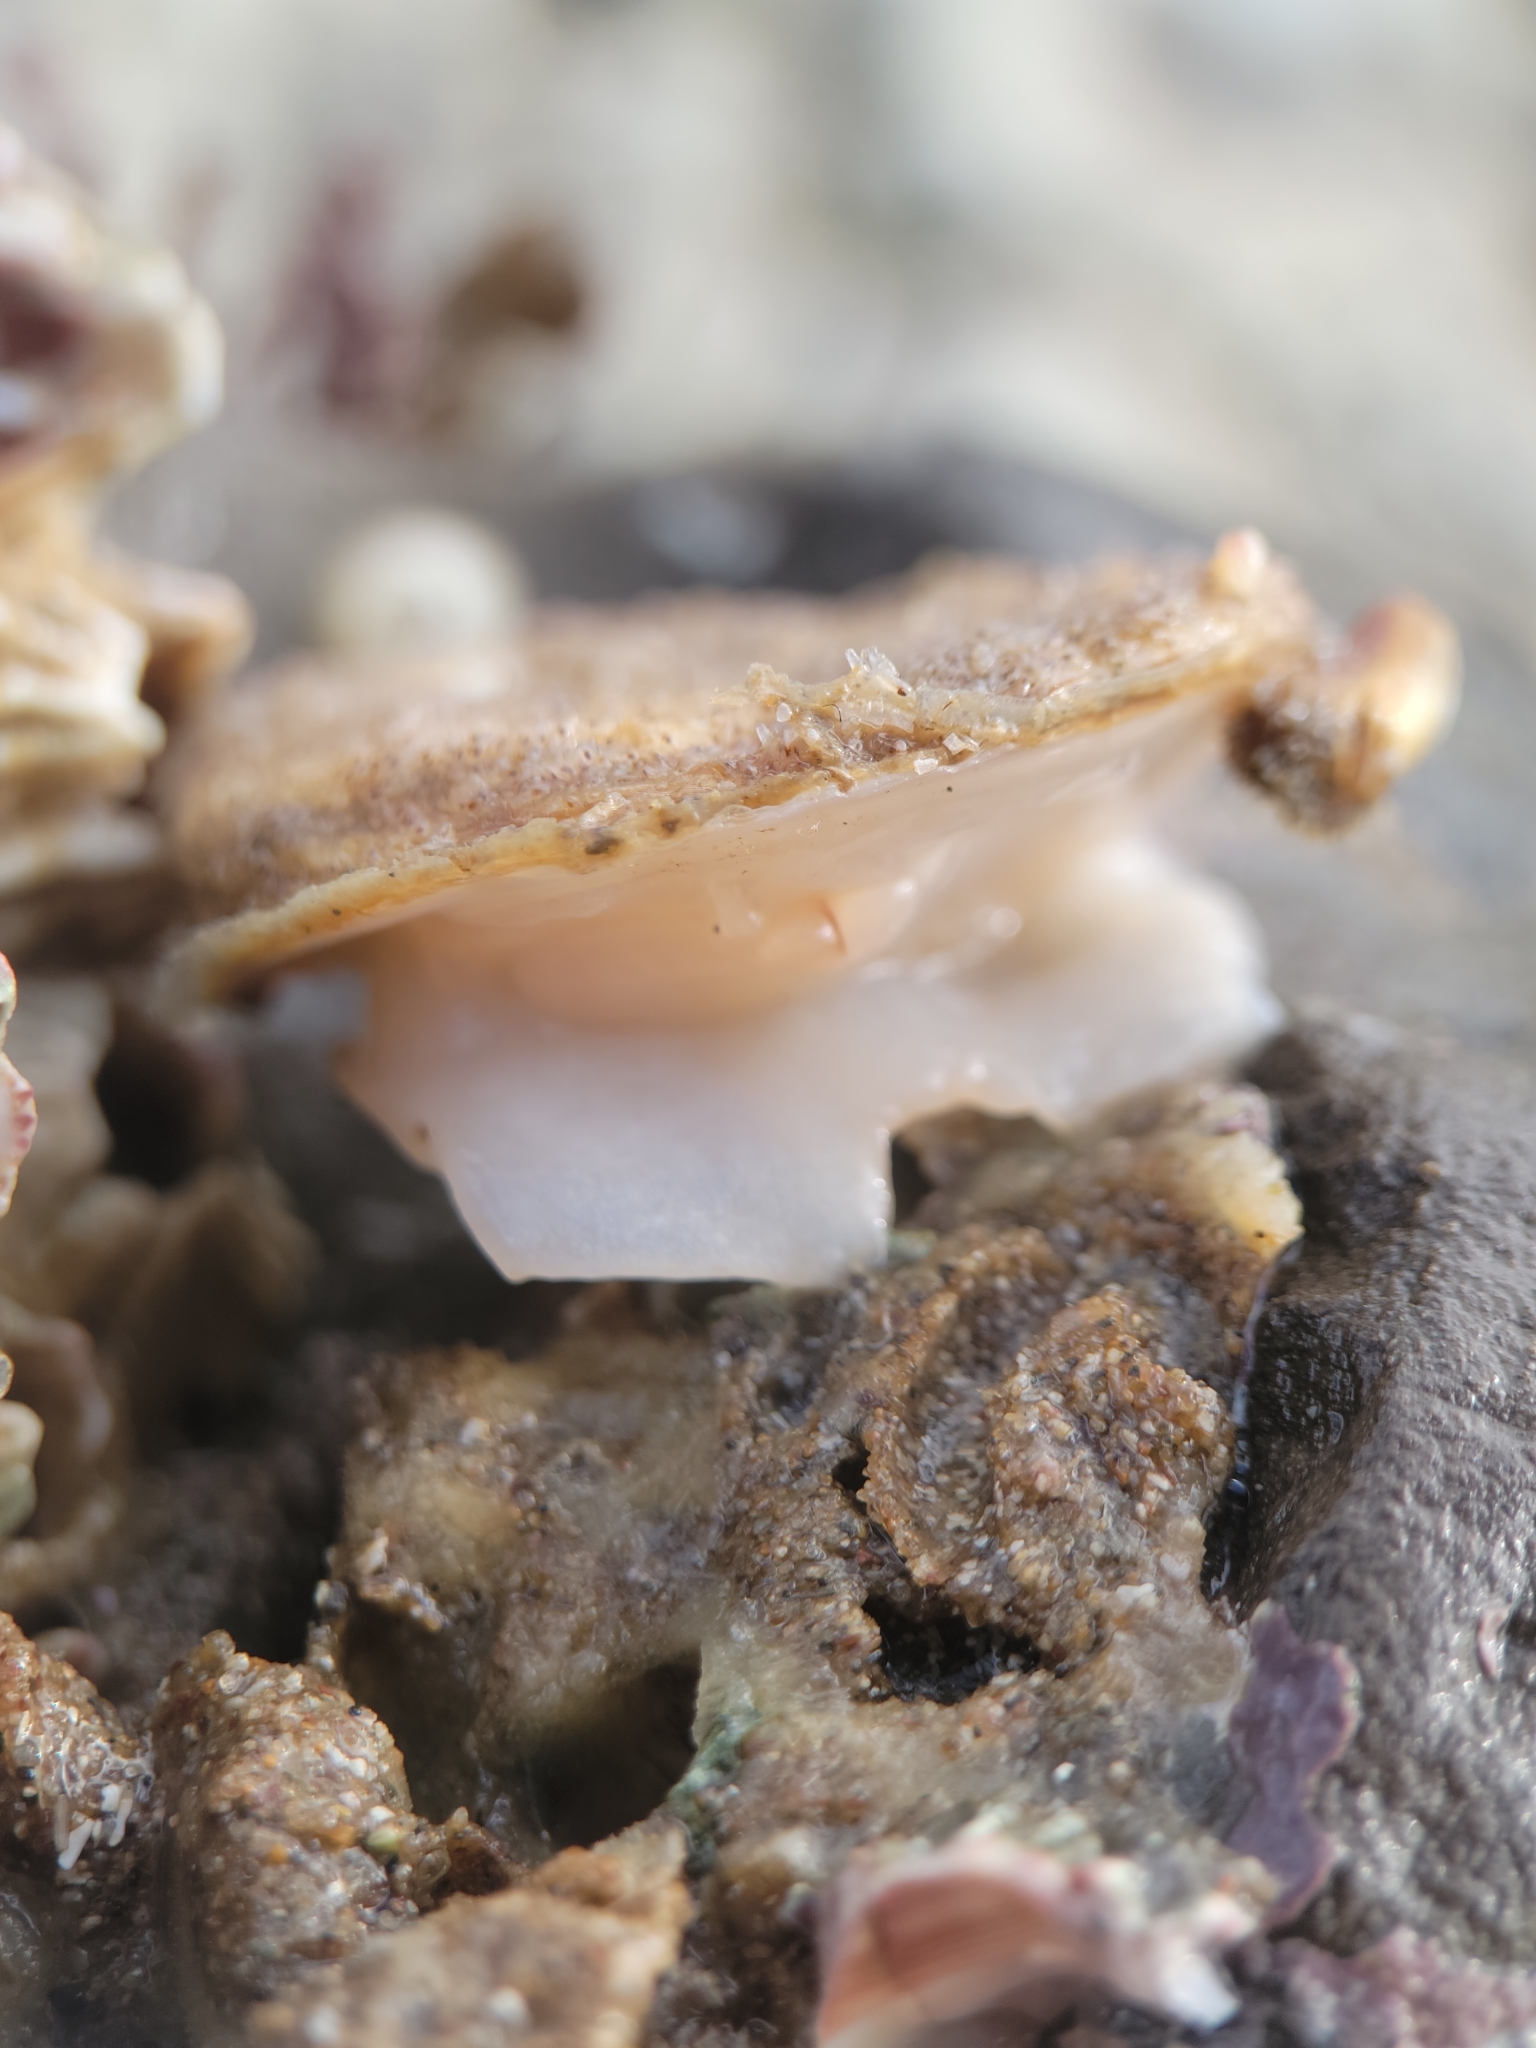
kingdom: Animalia
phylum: Mollusca
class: Gastropoda
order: Littorinimorpha
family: Calyptraeidae
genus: Crepidula
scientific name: Crepidula nummaria
